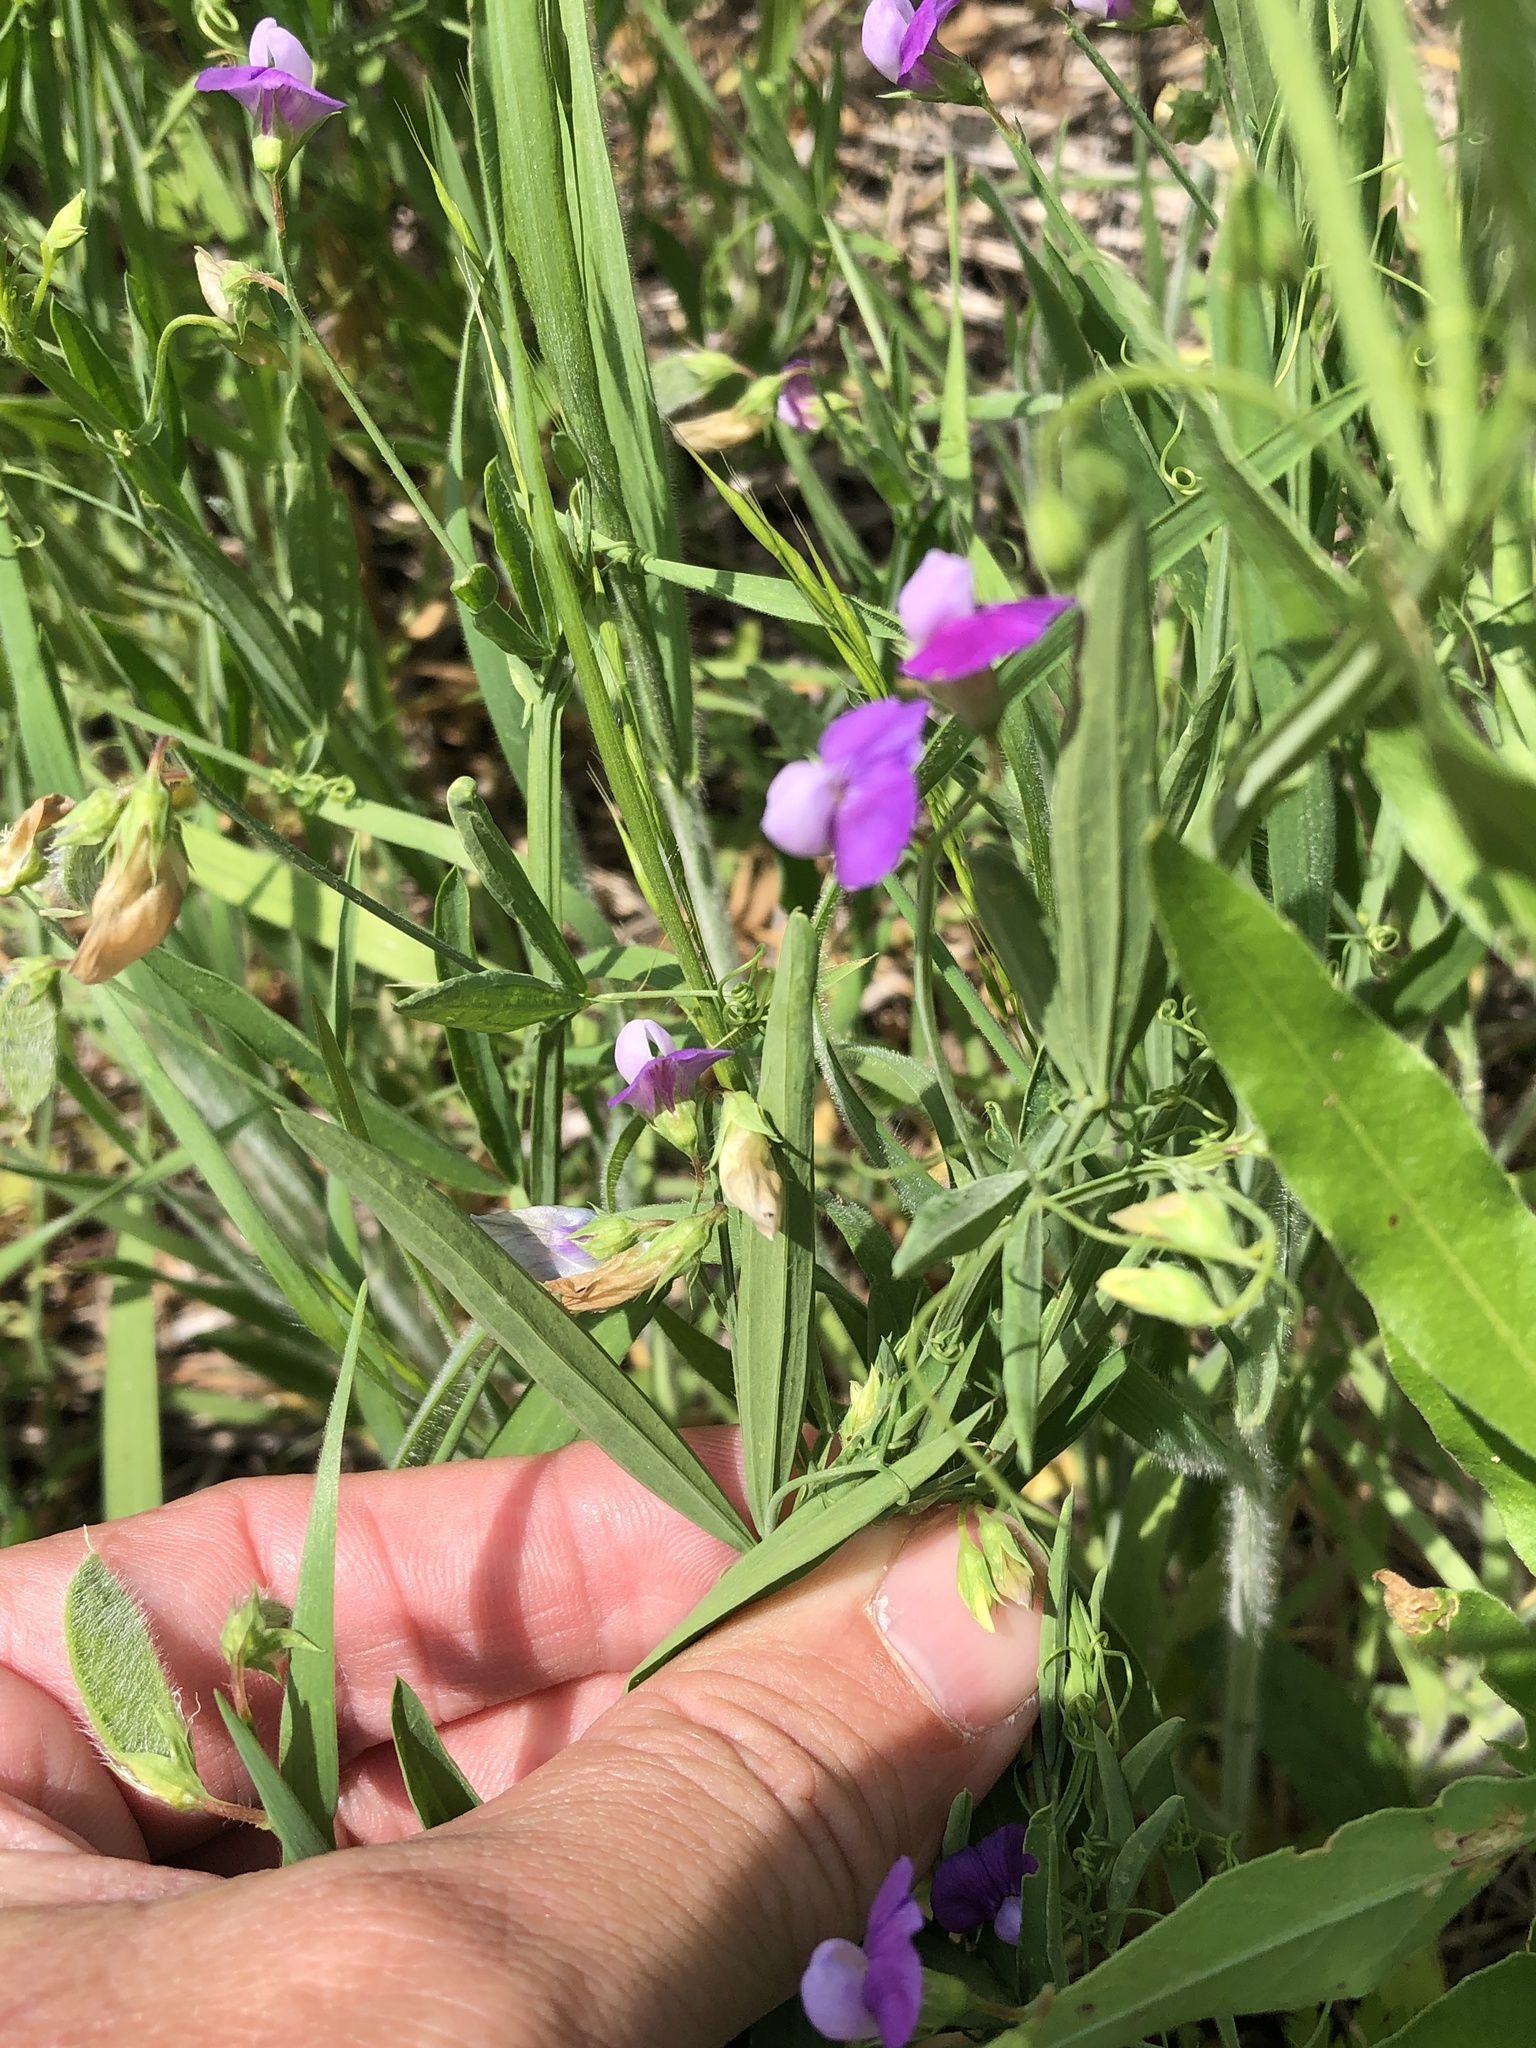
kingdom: Plantae
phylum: Tracheophyta
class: Magnoliopsida
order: Fabales
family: Fabaceae
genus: Lathyrus
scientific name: Lathyrus hirsutus
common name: Hairy vetchling
